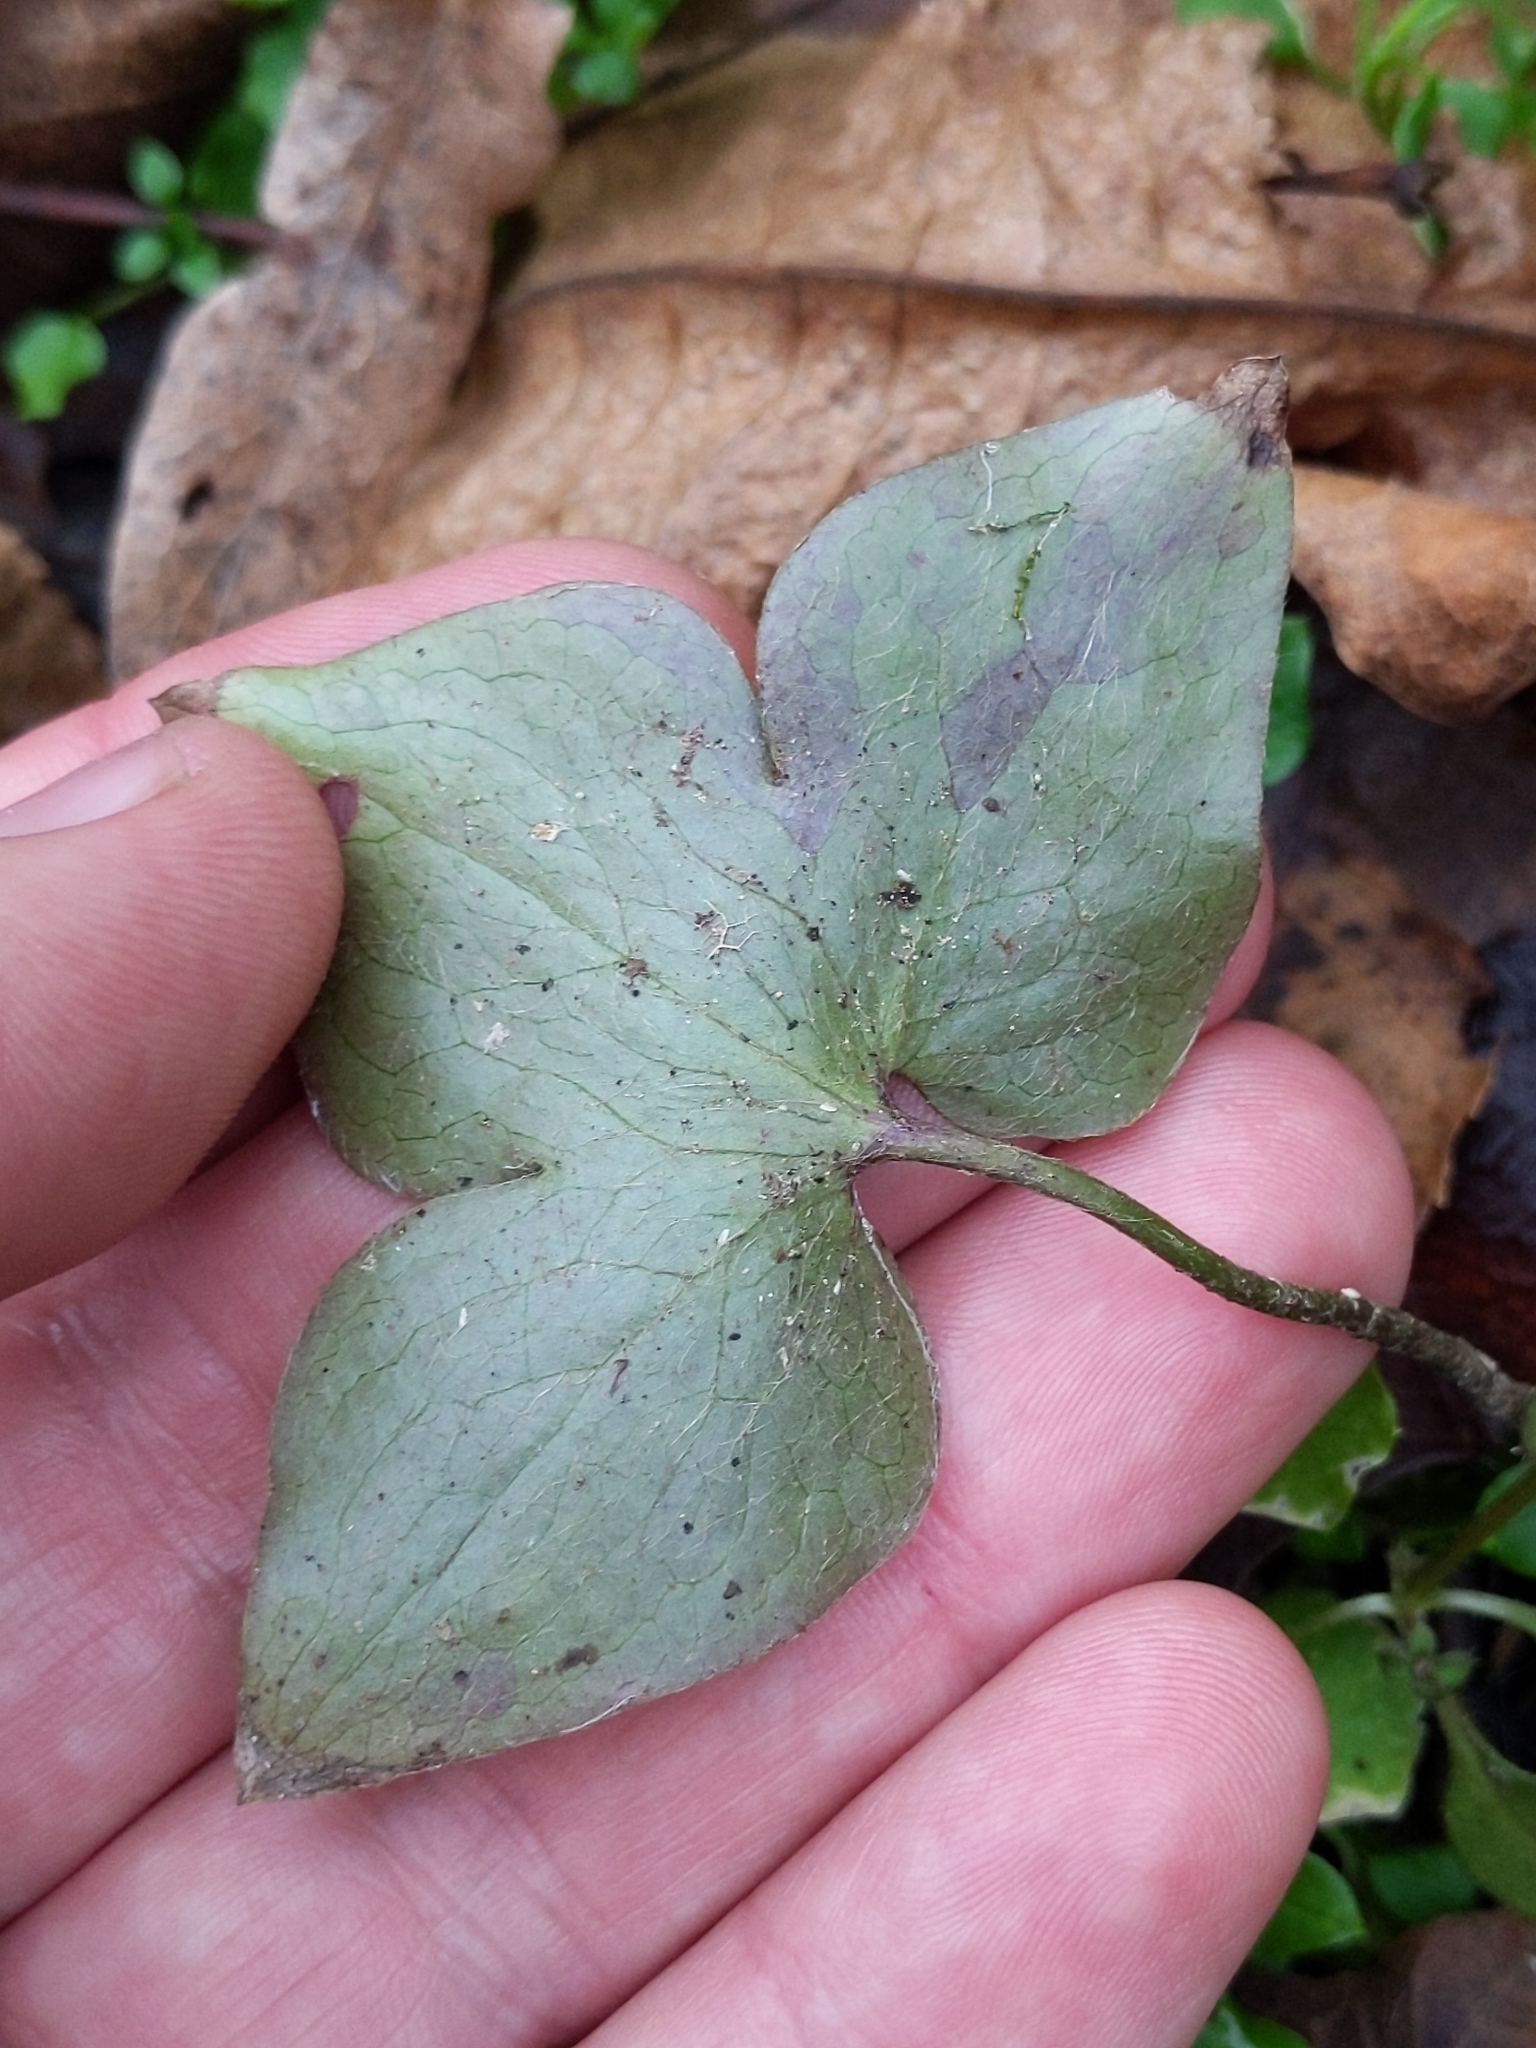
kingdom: Plantae
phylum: Tracheophyta
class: Magnoliopsida
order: Ranunculales
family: Ranunculaceae
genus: Hepatica
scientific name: Hepatica acutiloba
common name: Sharp-lobed hepatica
